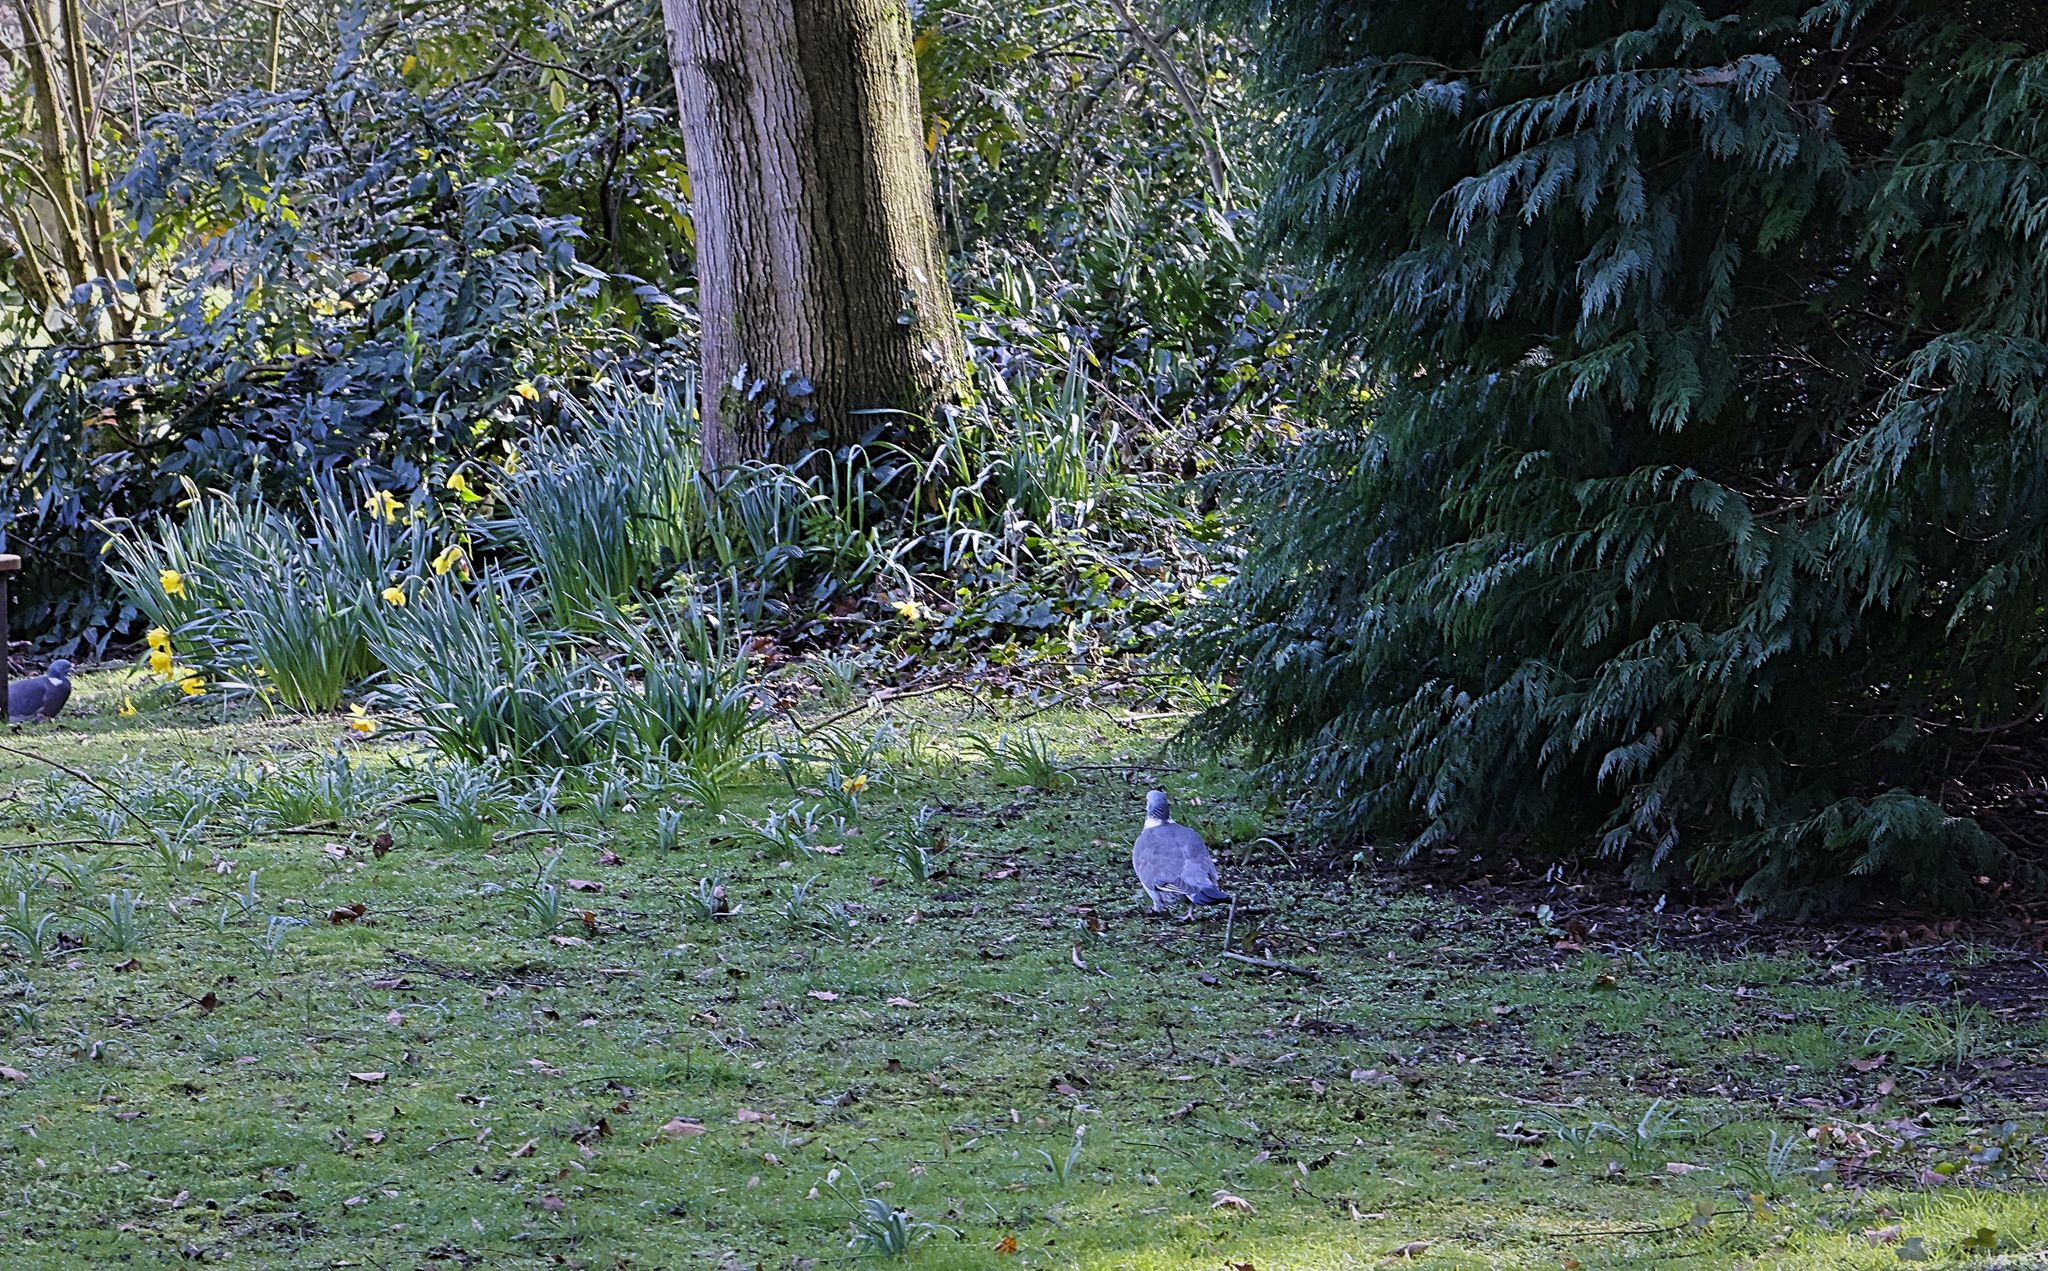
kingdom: Animalia
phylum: Chordata
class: Aves
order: Columbiformes
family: Columbidae
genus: Columba
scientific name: Columba palumbus
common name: Common wood pigeon
